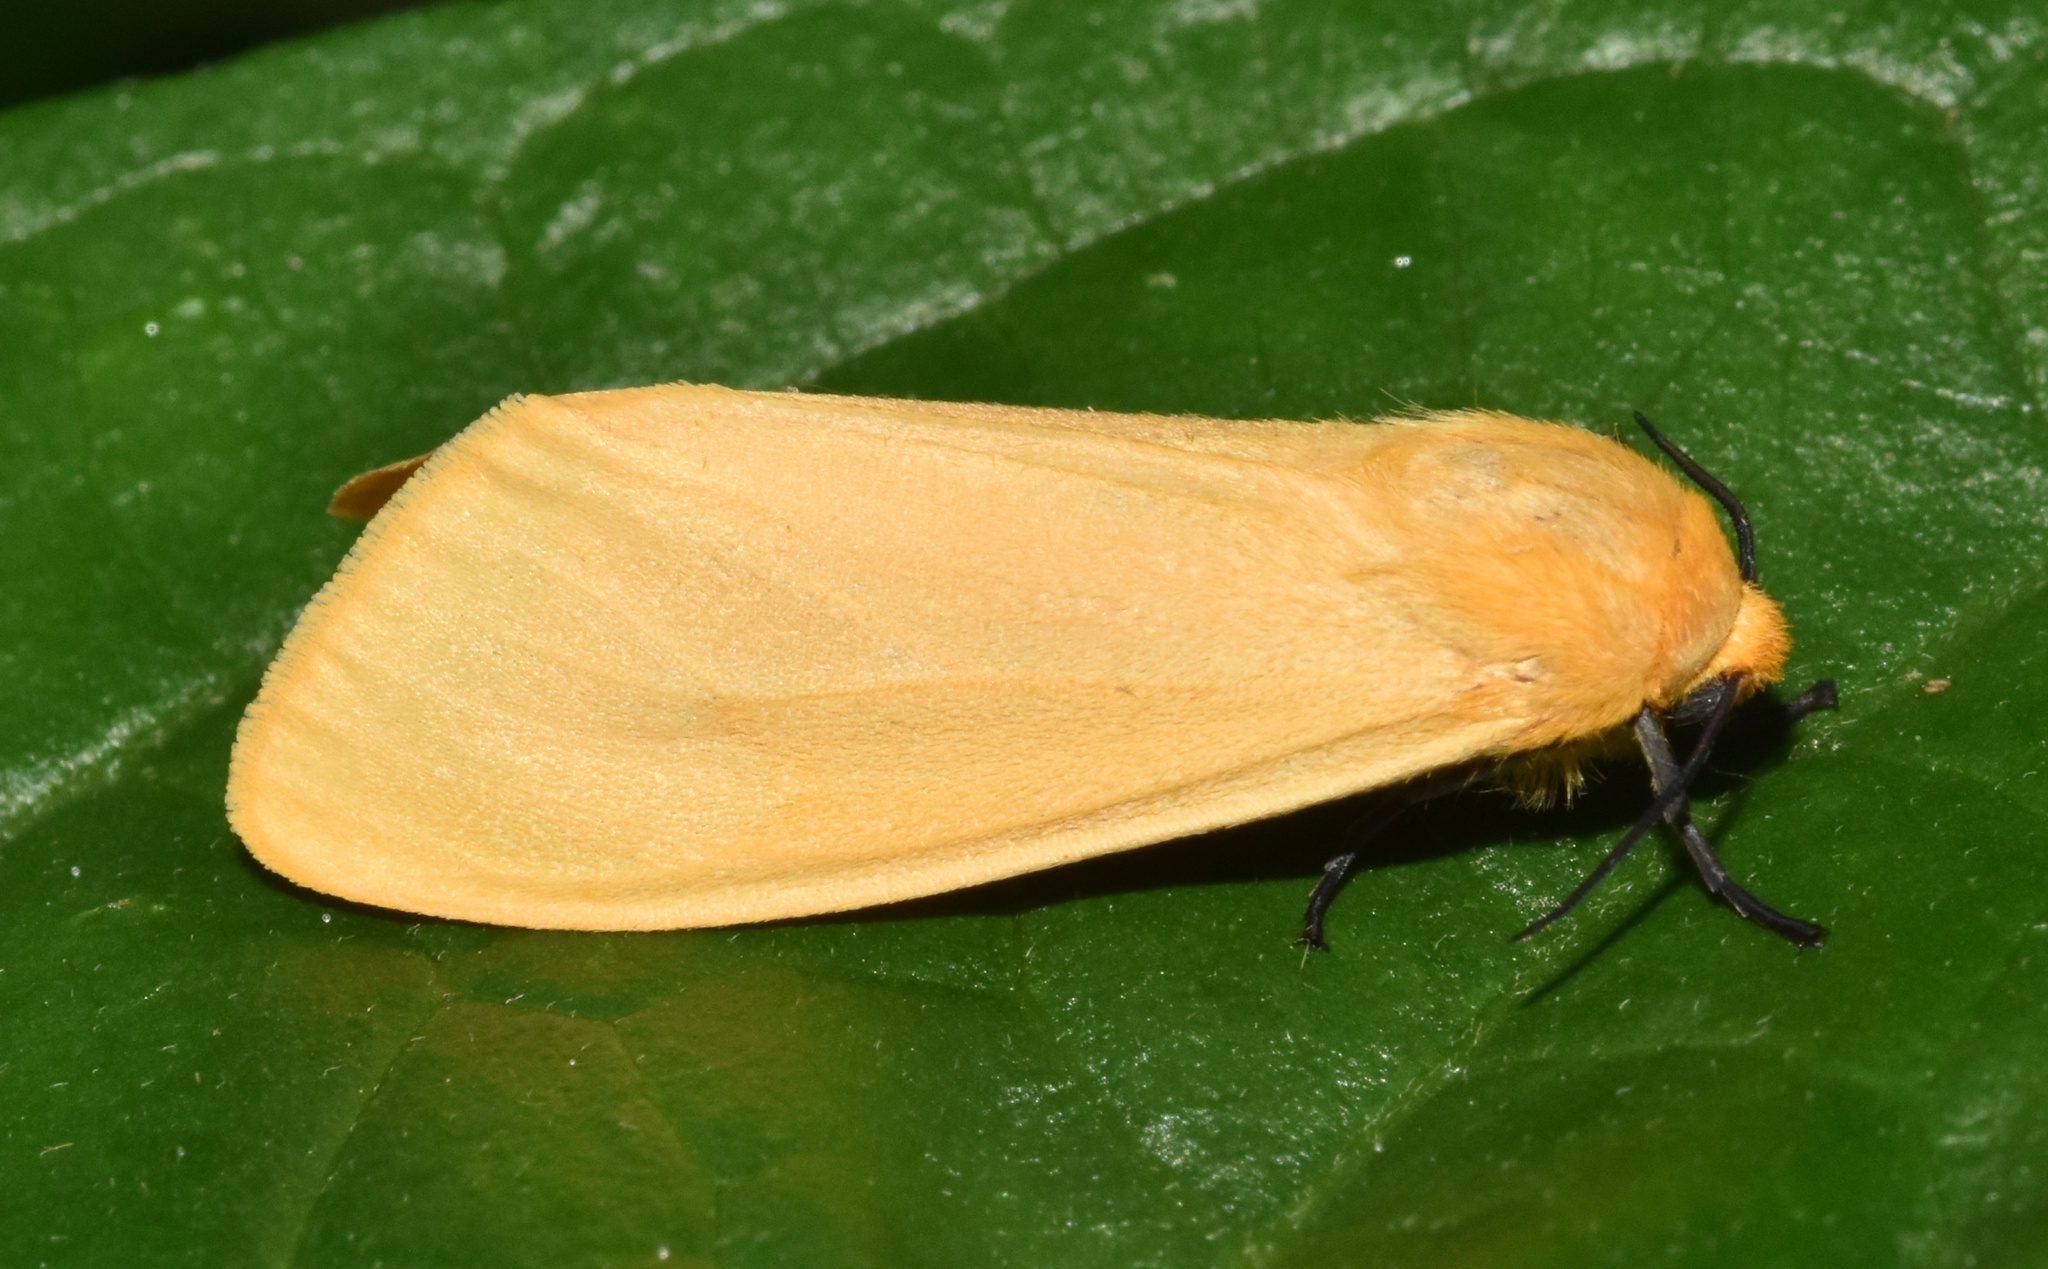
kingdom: Animalia
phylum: Arthropoda
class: Insecta
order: Lepidoptera
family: Erebidae
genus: Saenura
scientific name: Saenura flava
